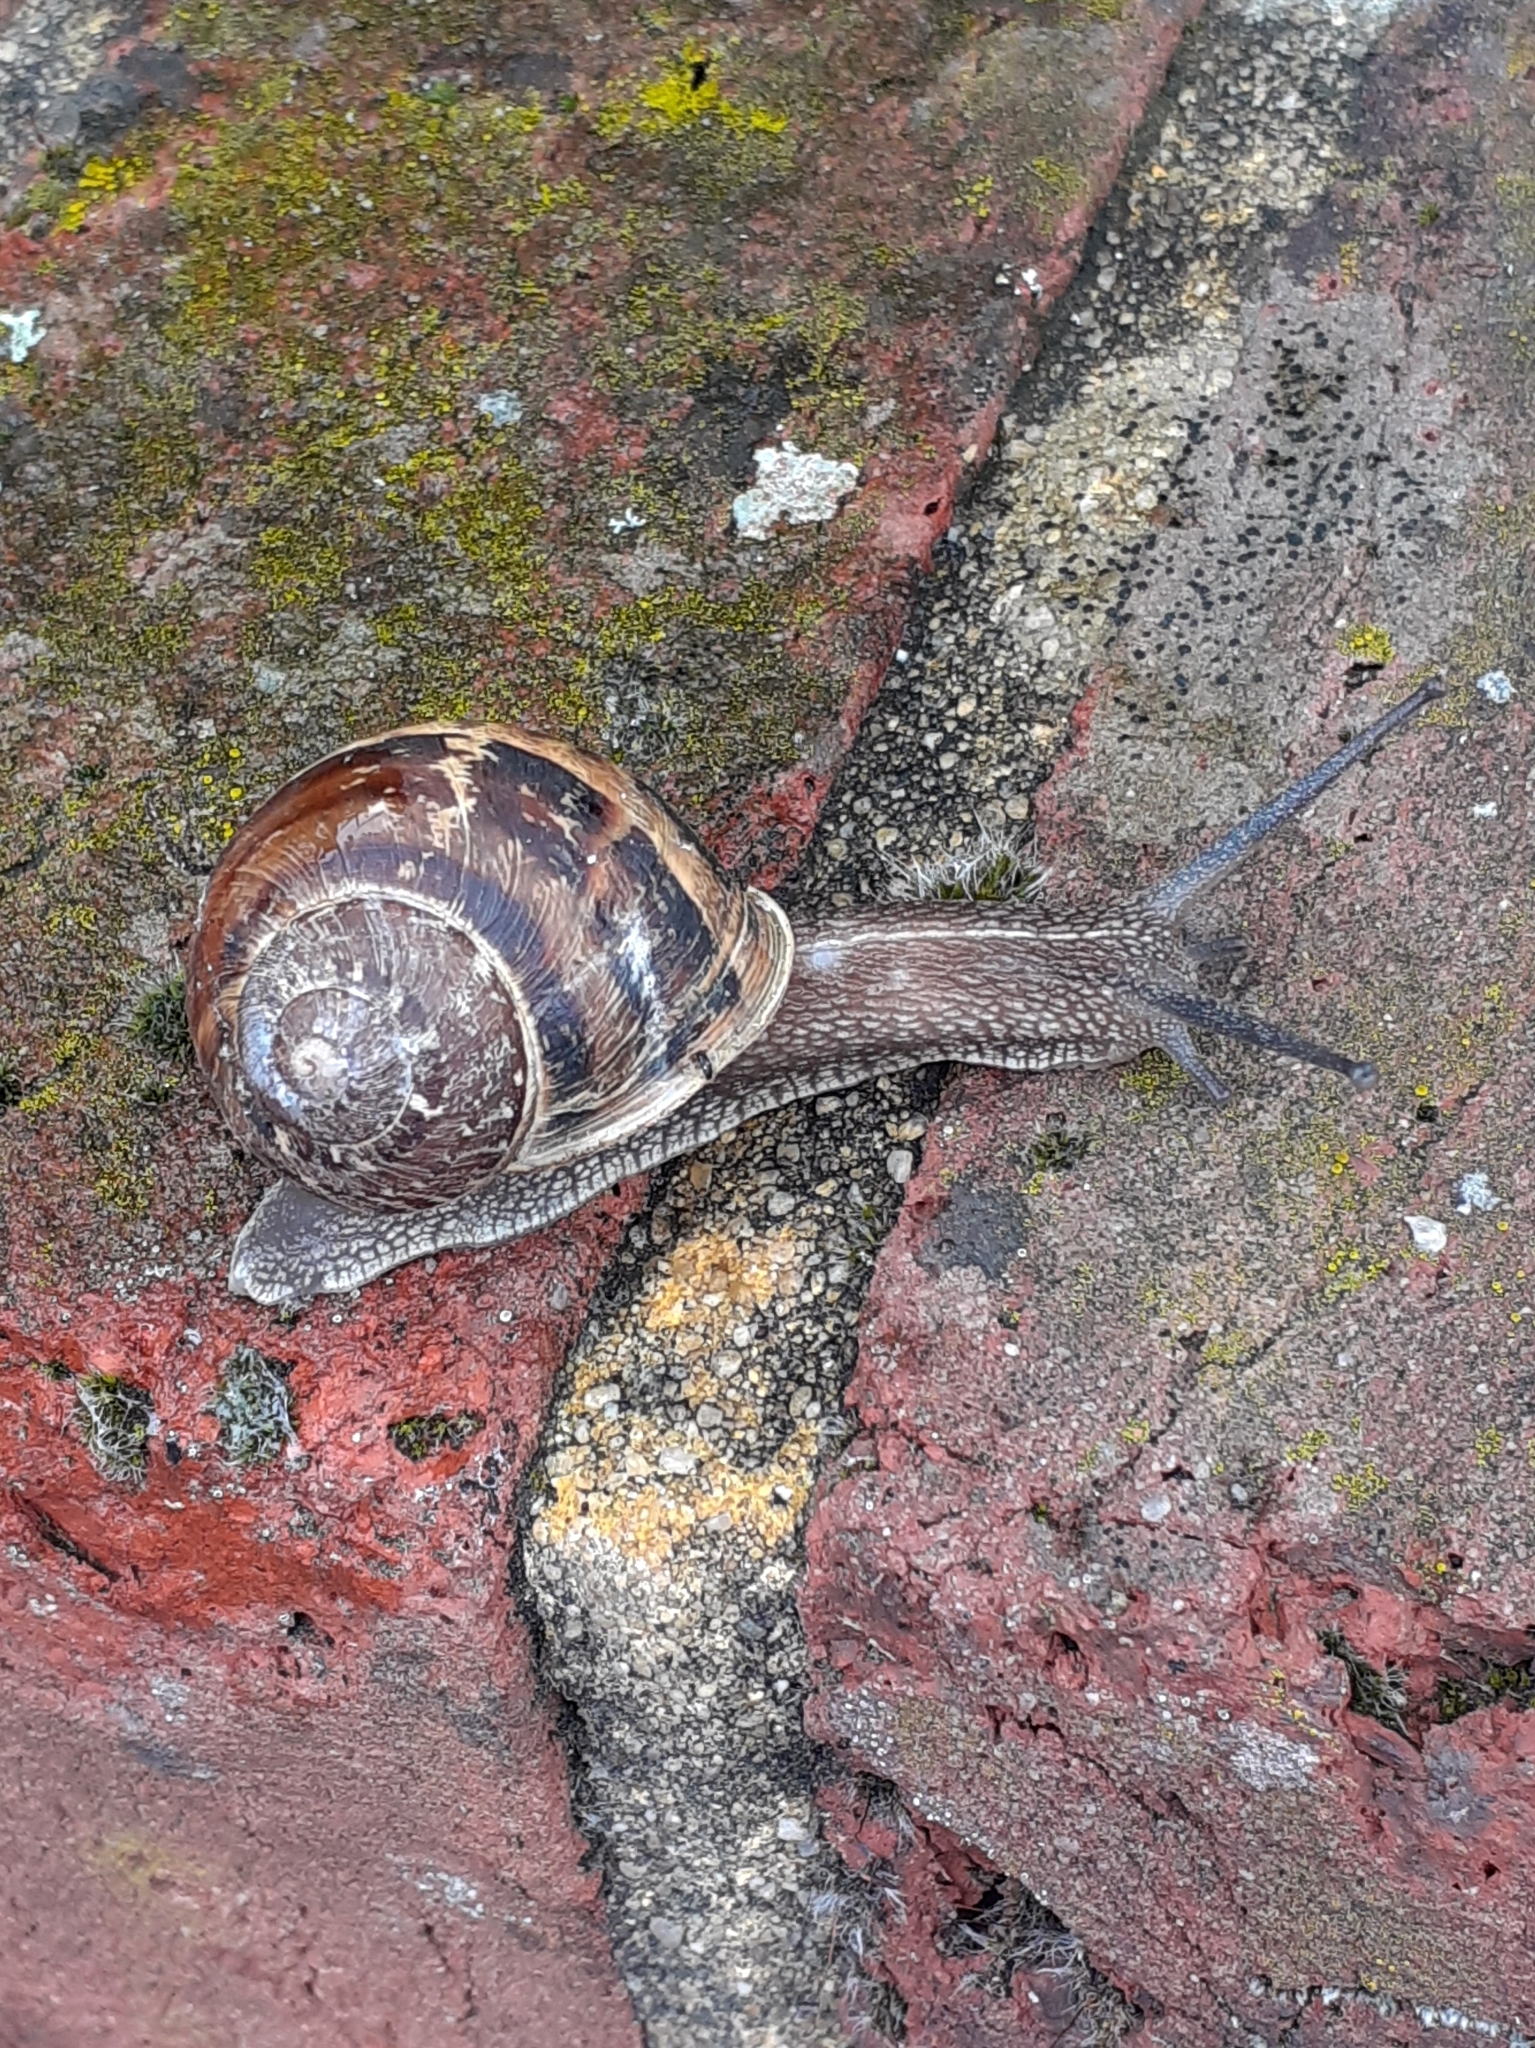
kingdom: Animalia
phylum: Mollusca
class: Gastropoda
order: Stylommatophora
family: Helicidae
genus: Cornu
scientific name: Cornu aspersum
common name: Brown garden snail
